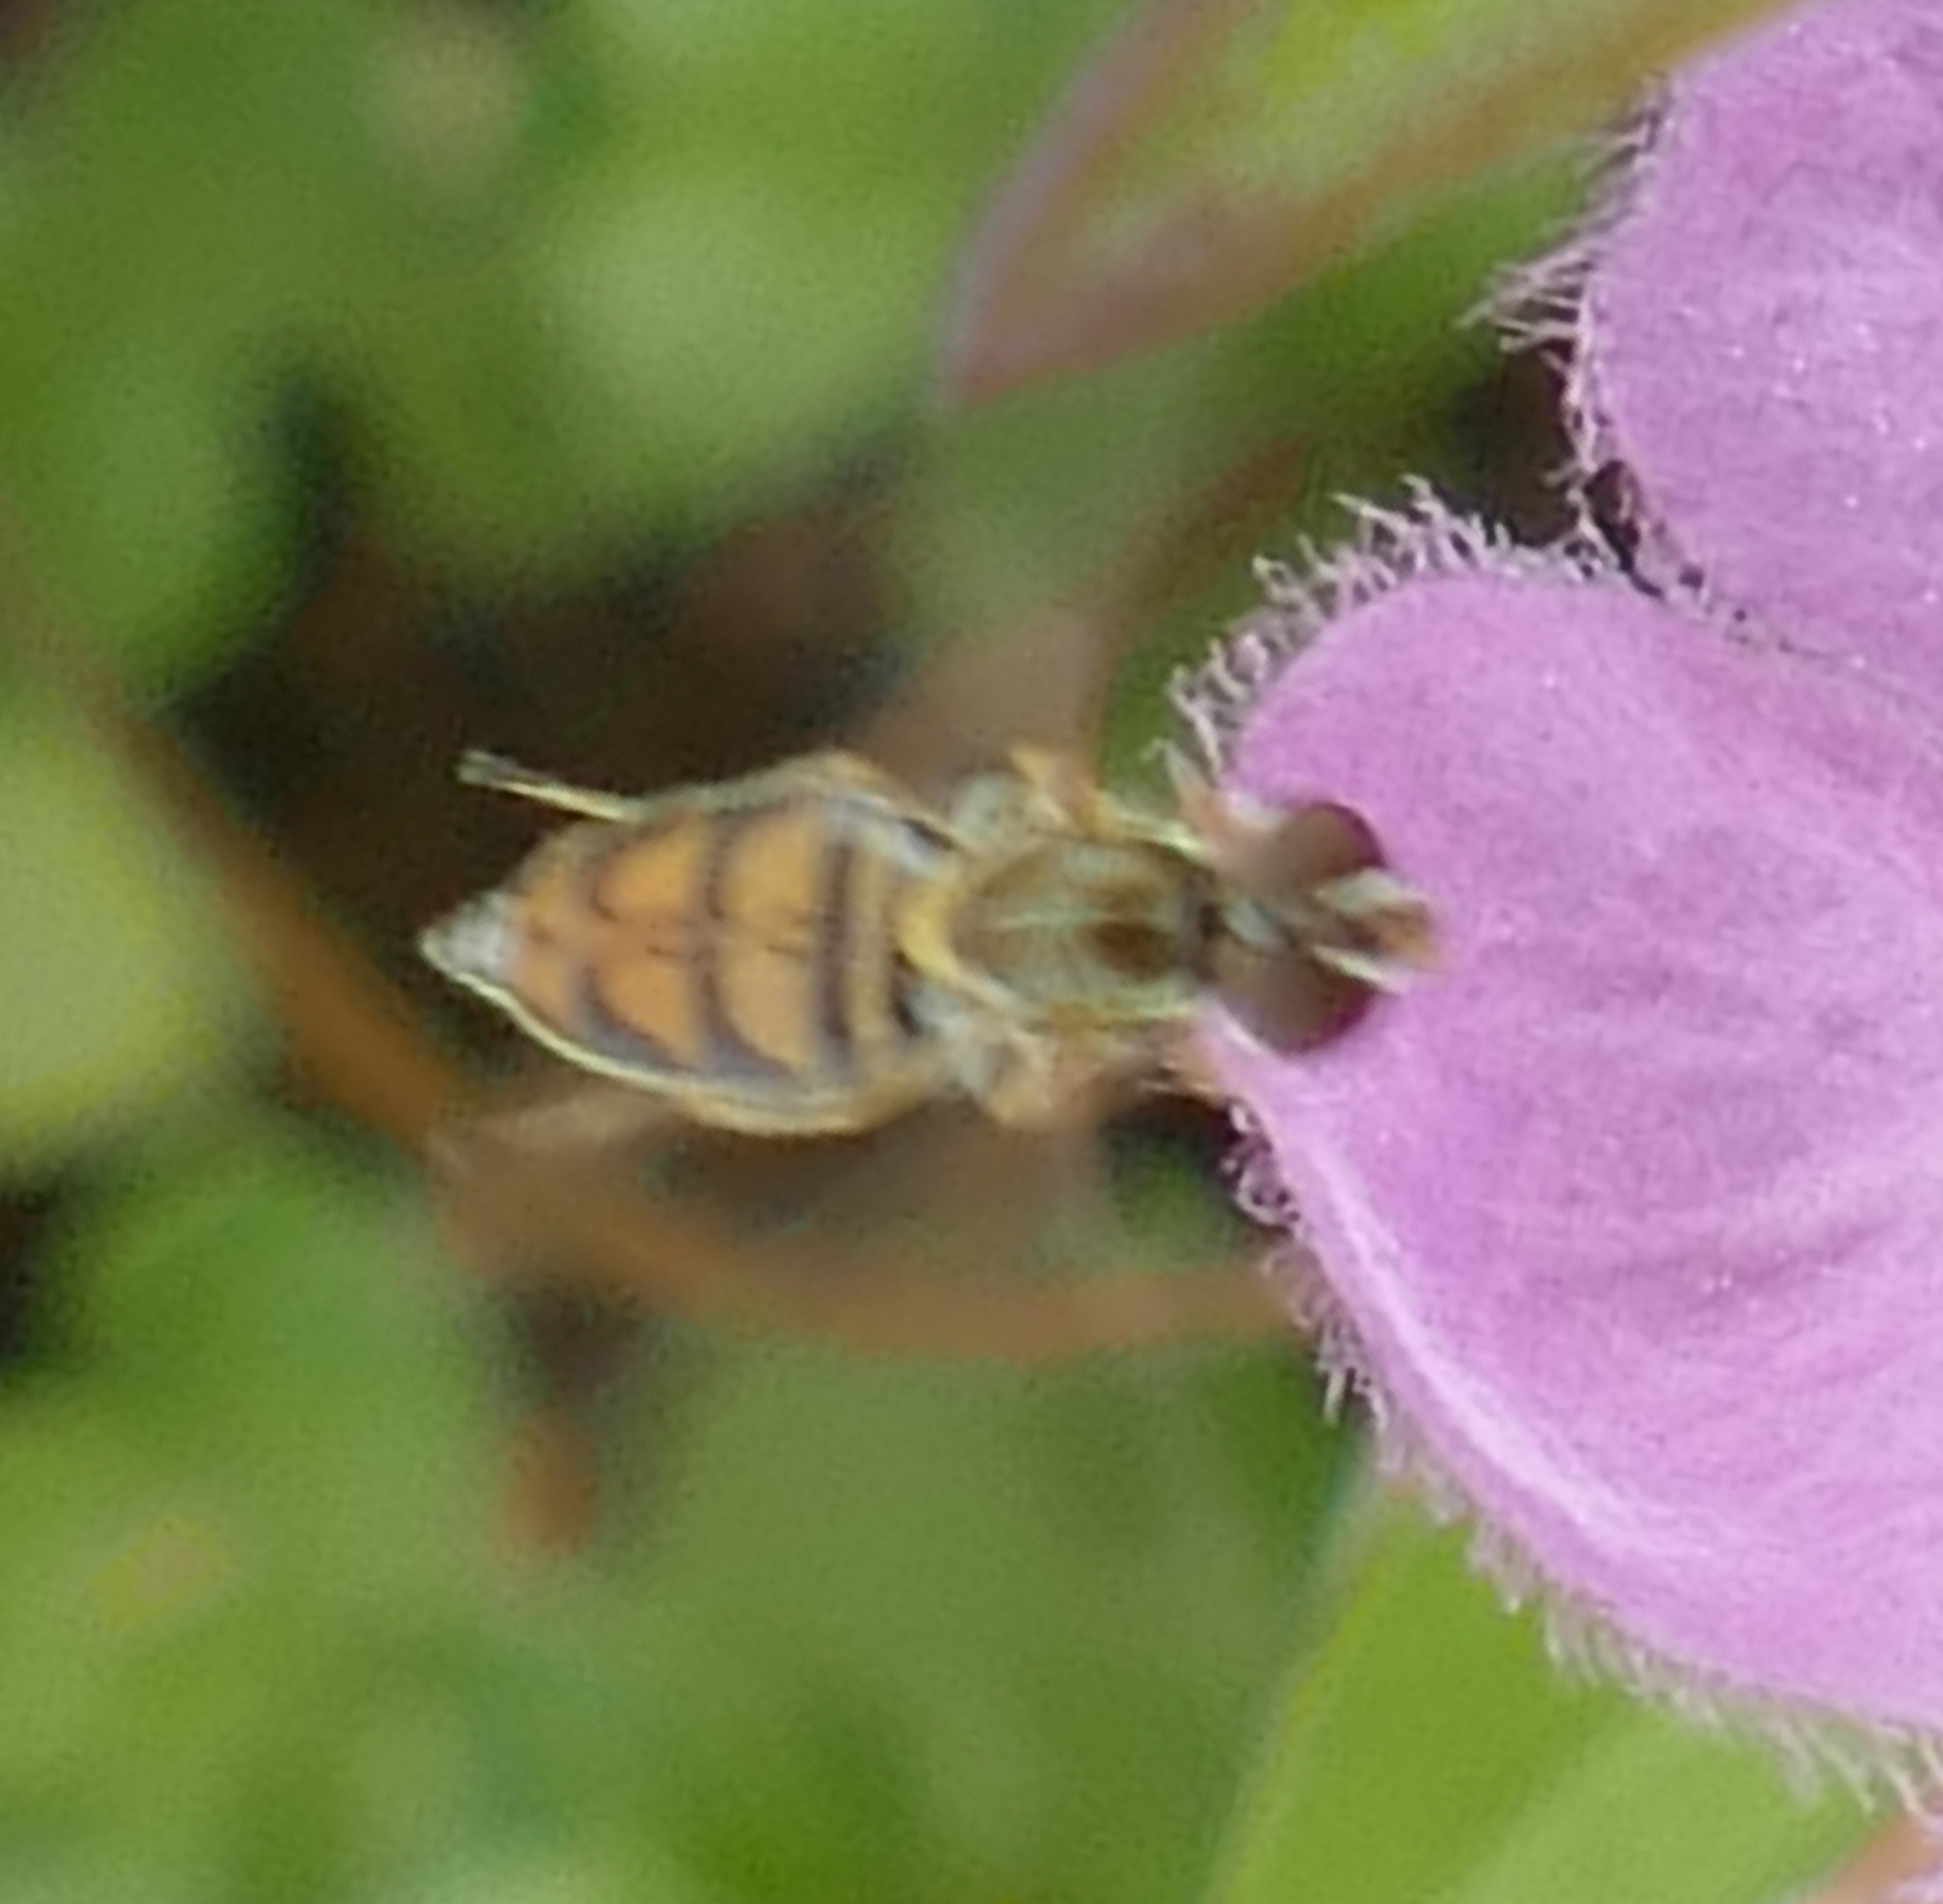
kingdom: Animalia
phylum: Arthropoda
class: Insecta
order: Diptera
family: Syrphidae
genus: Toxomerus
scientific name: Toxomerus marginatus
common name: Syrphid fly
